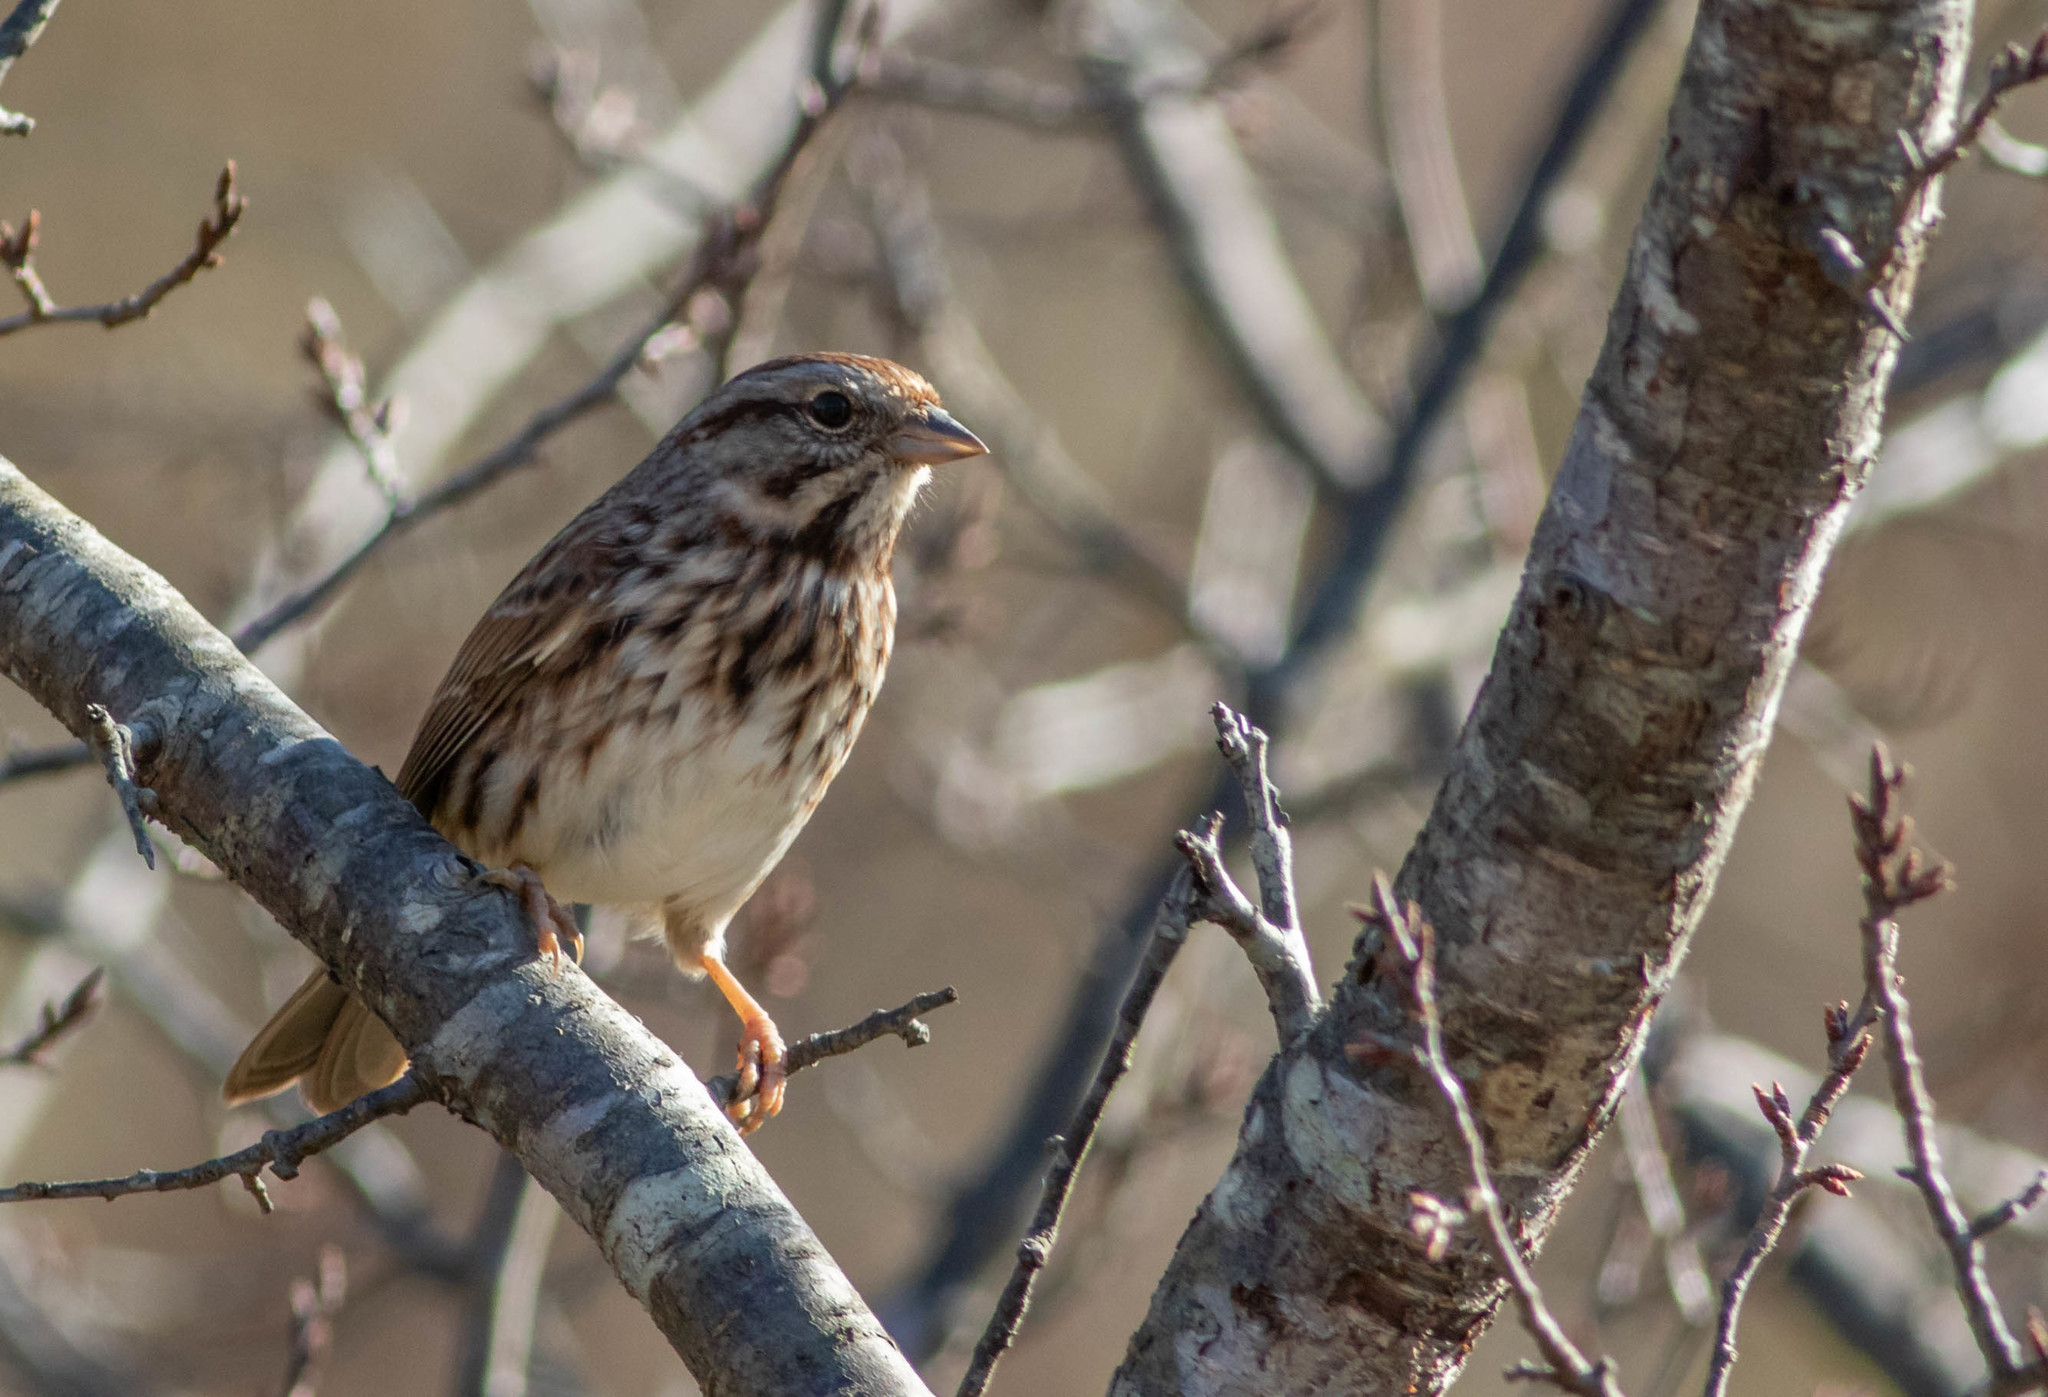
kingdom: Animalia
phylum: Chordata
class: Aves
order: Passeriformes
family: Passerellidae
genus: Melospiza
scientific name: Melospiza melodia
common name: Song sparrow
